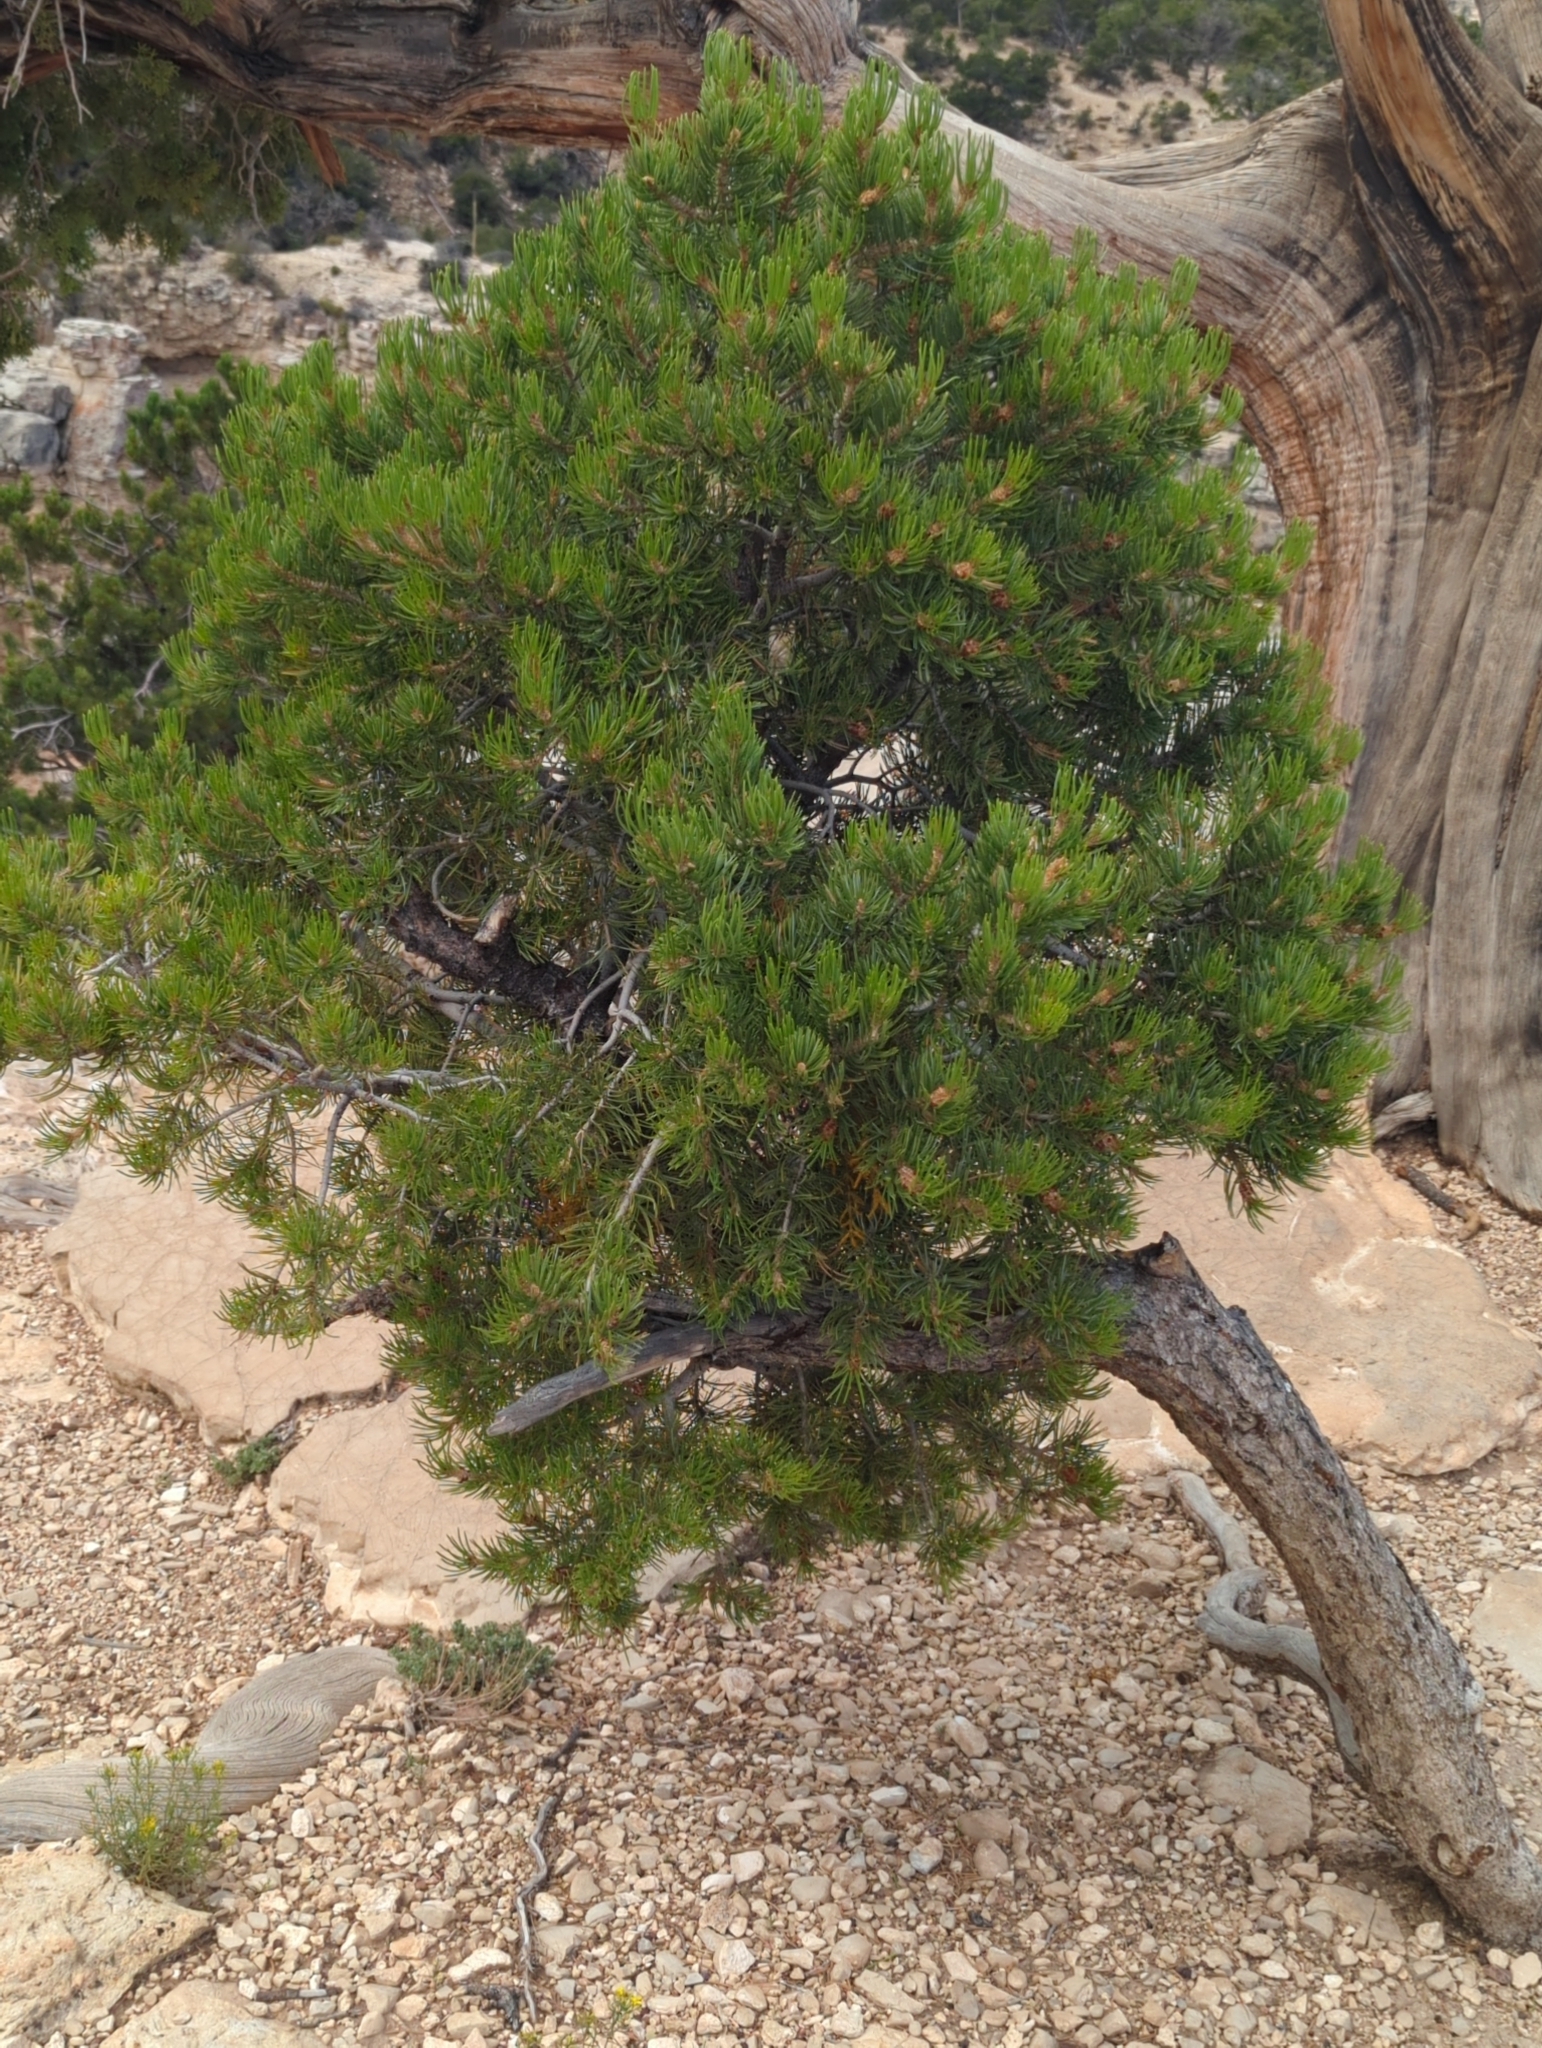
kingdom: Plantae
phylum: Tracheophyta
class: Pinopsida
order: Pinales
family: Pinaceae
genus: Pinus
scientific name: Pinus edulis
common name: Colorado pinyon
